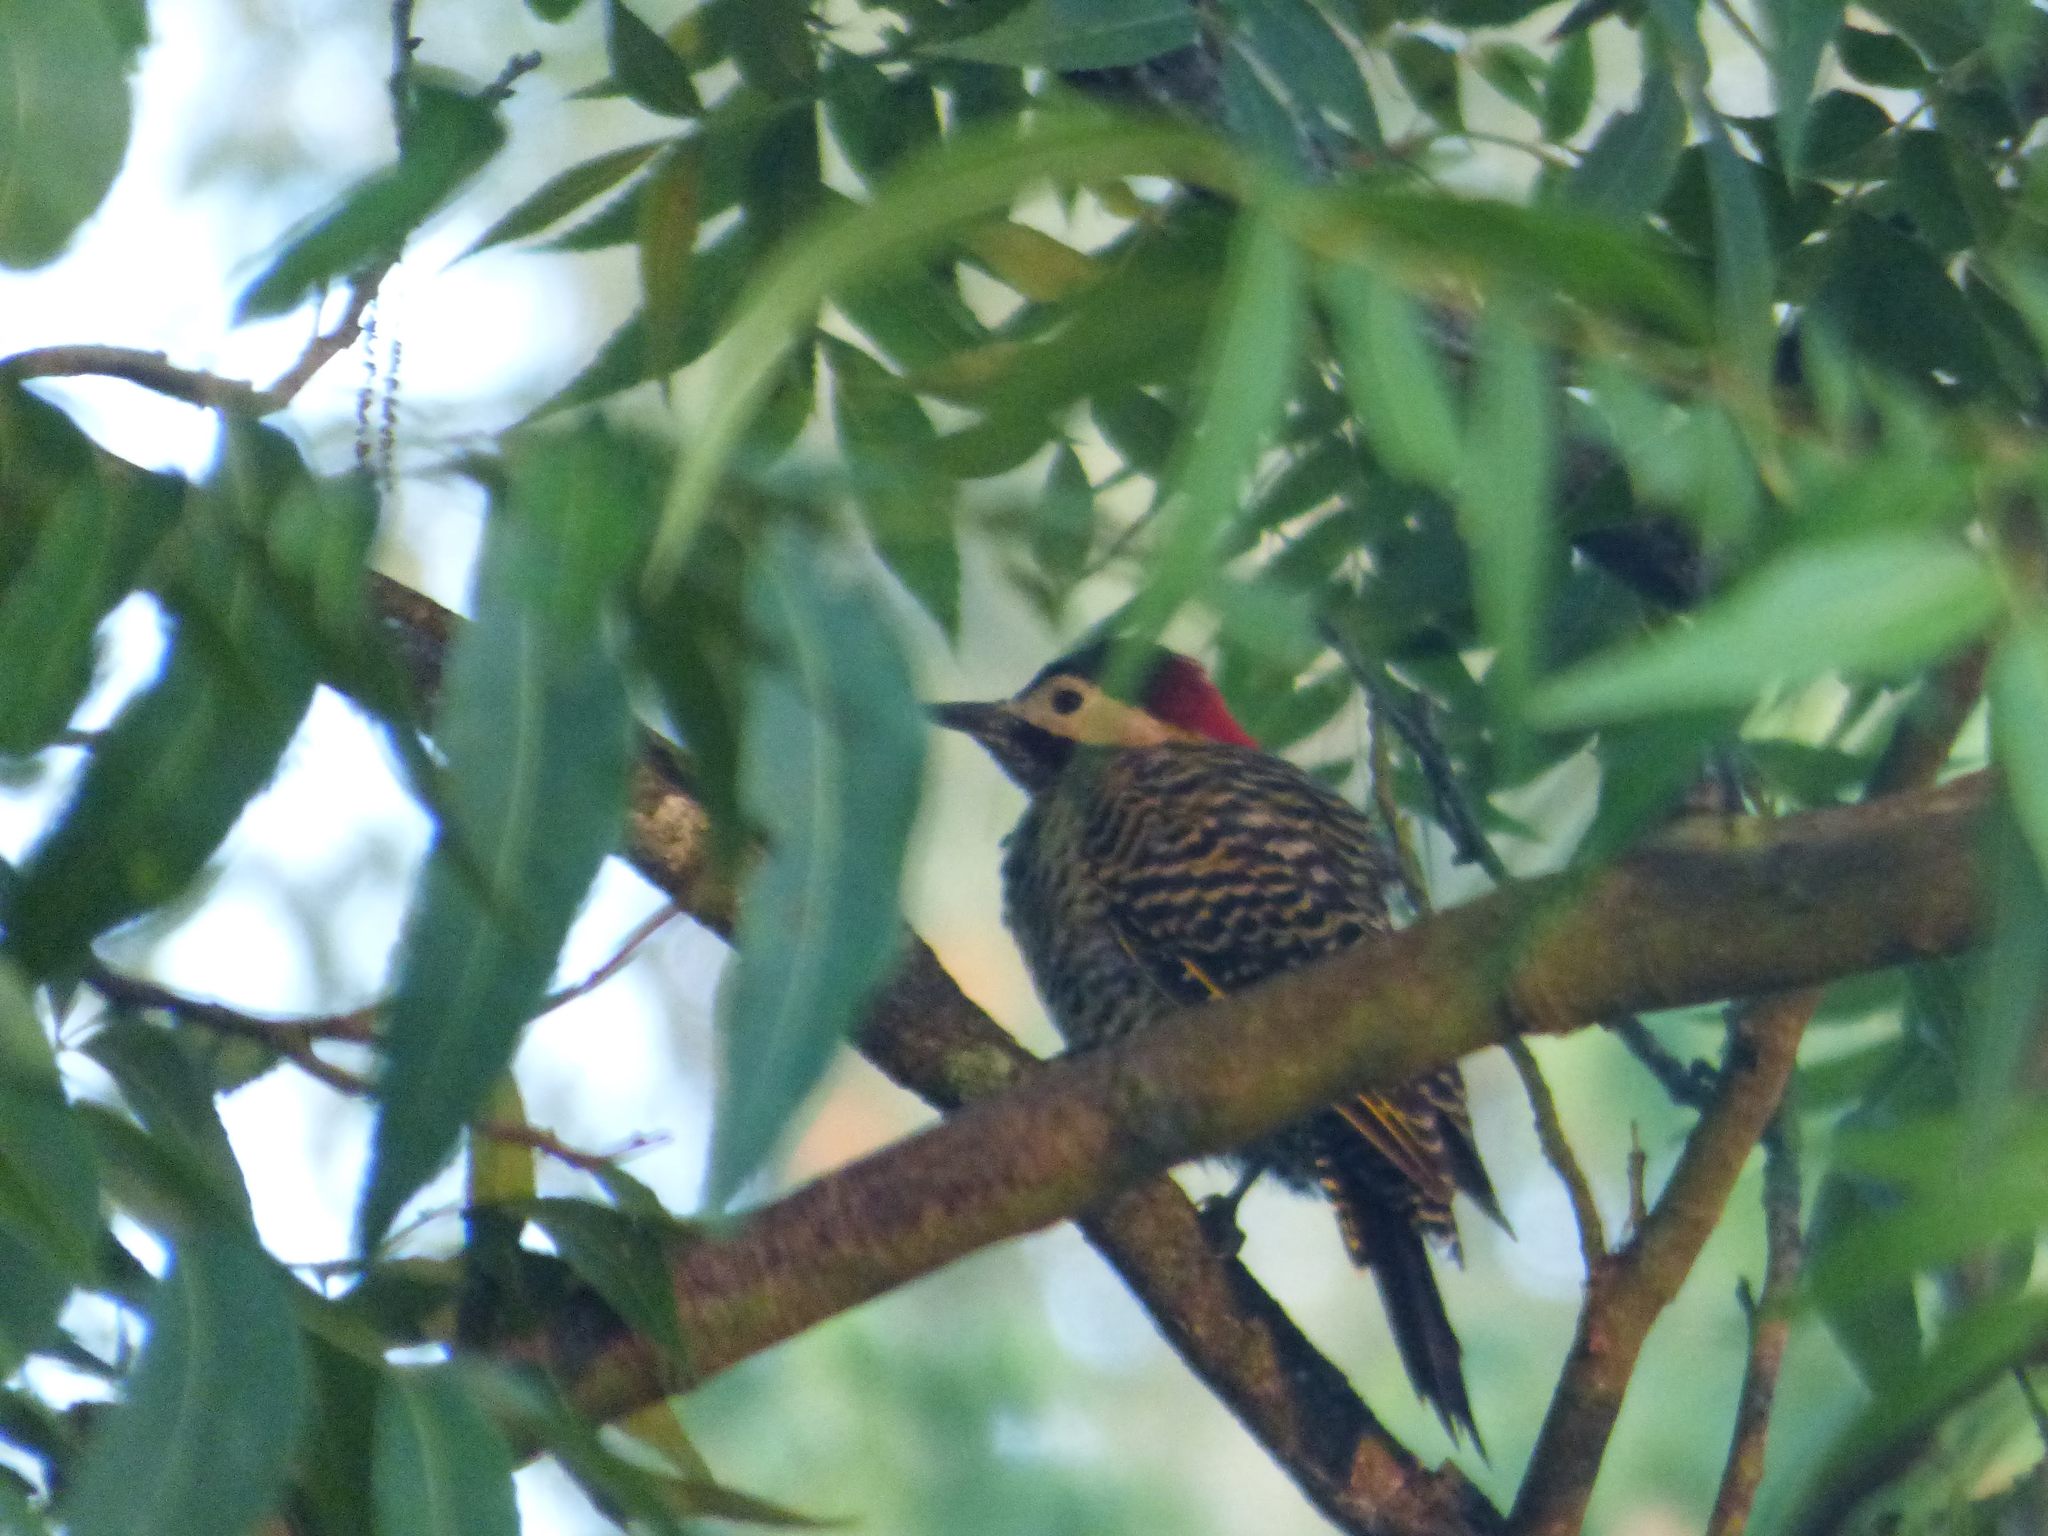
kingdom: Animalia
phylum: Chordata
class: Aves
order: Piciformes
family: Picidae
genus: Colaptes
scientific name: Colaptes melanochloros
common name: Green-barred woodpecker
